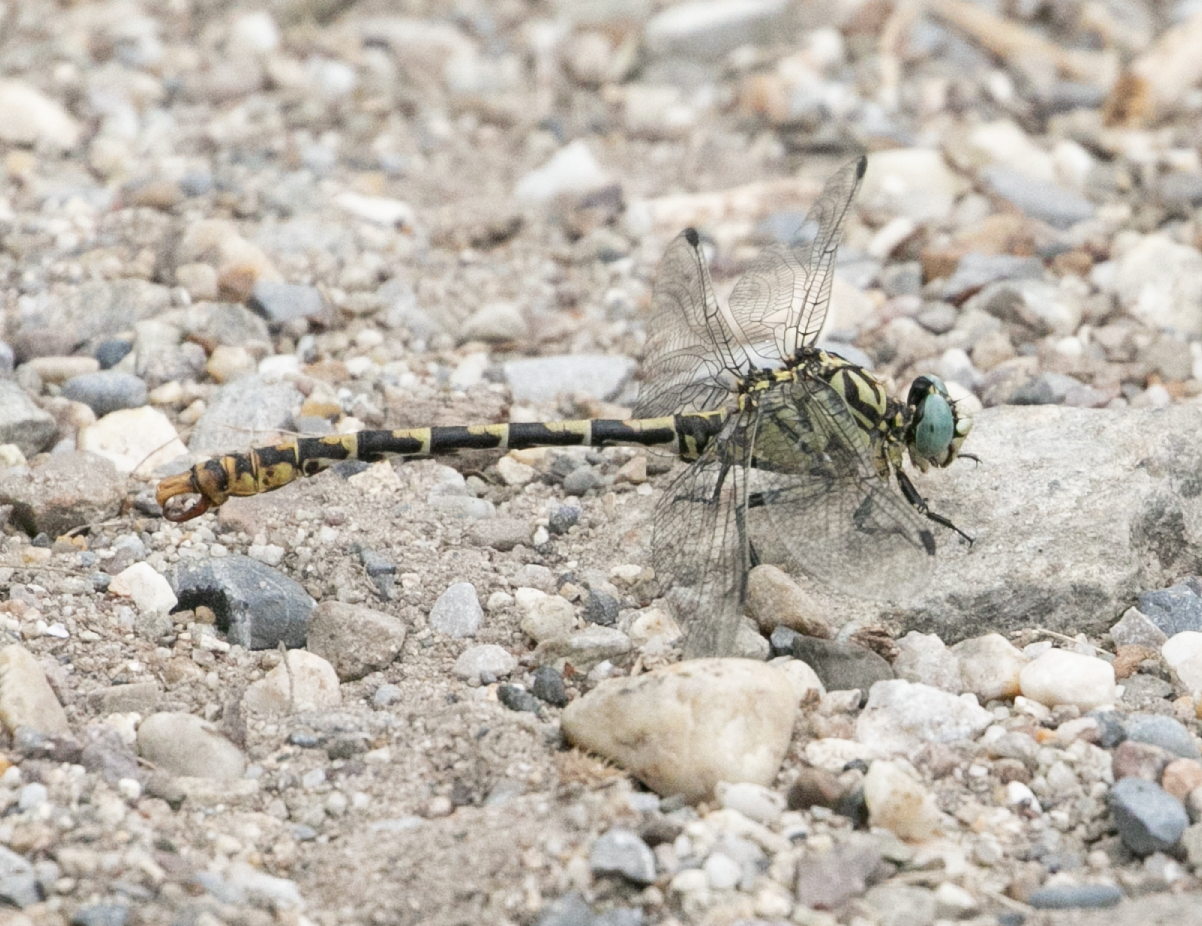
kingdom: Animalia
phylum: Arthropoda
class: Insecta
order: Odonata
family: Gomphidae
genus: Onychogomphus
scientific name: Onychogomphus forcipatus
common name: Small pincertail
